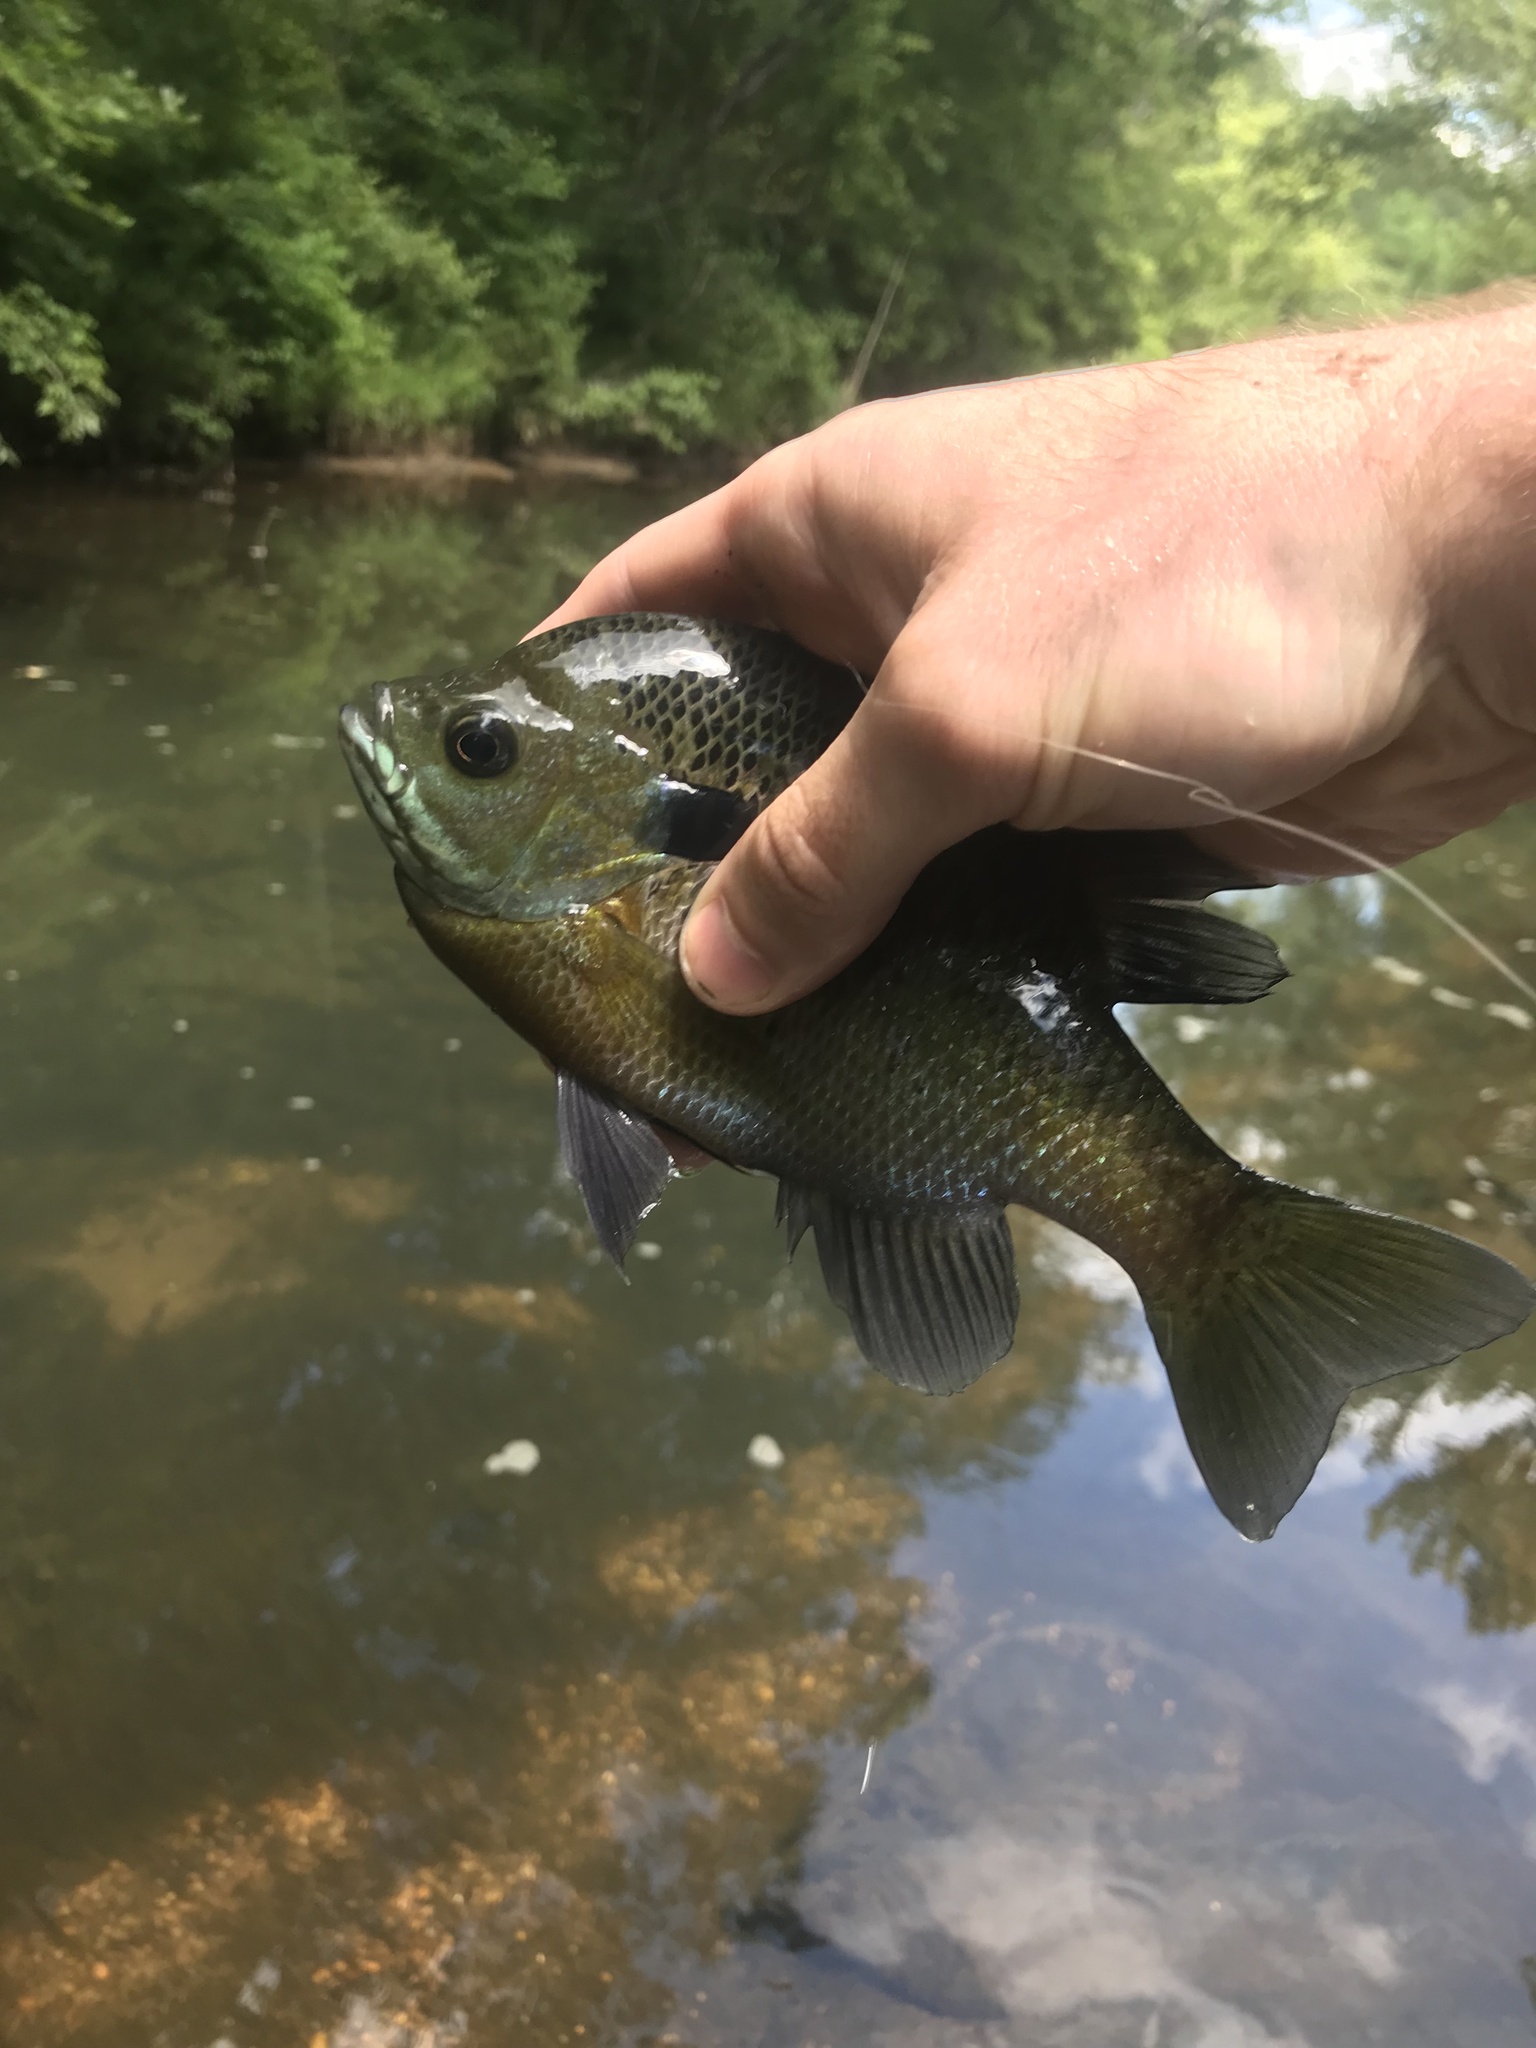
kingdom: Animalia
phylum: Chordata
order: Perciformes
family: Centrarchidae
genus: Lepomis
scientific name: Lepomis macrochirus
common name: Bluegill
